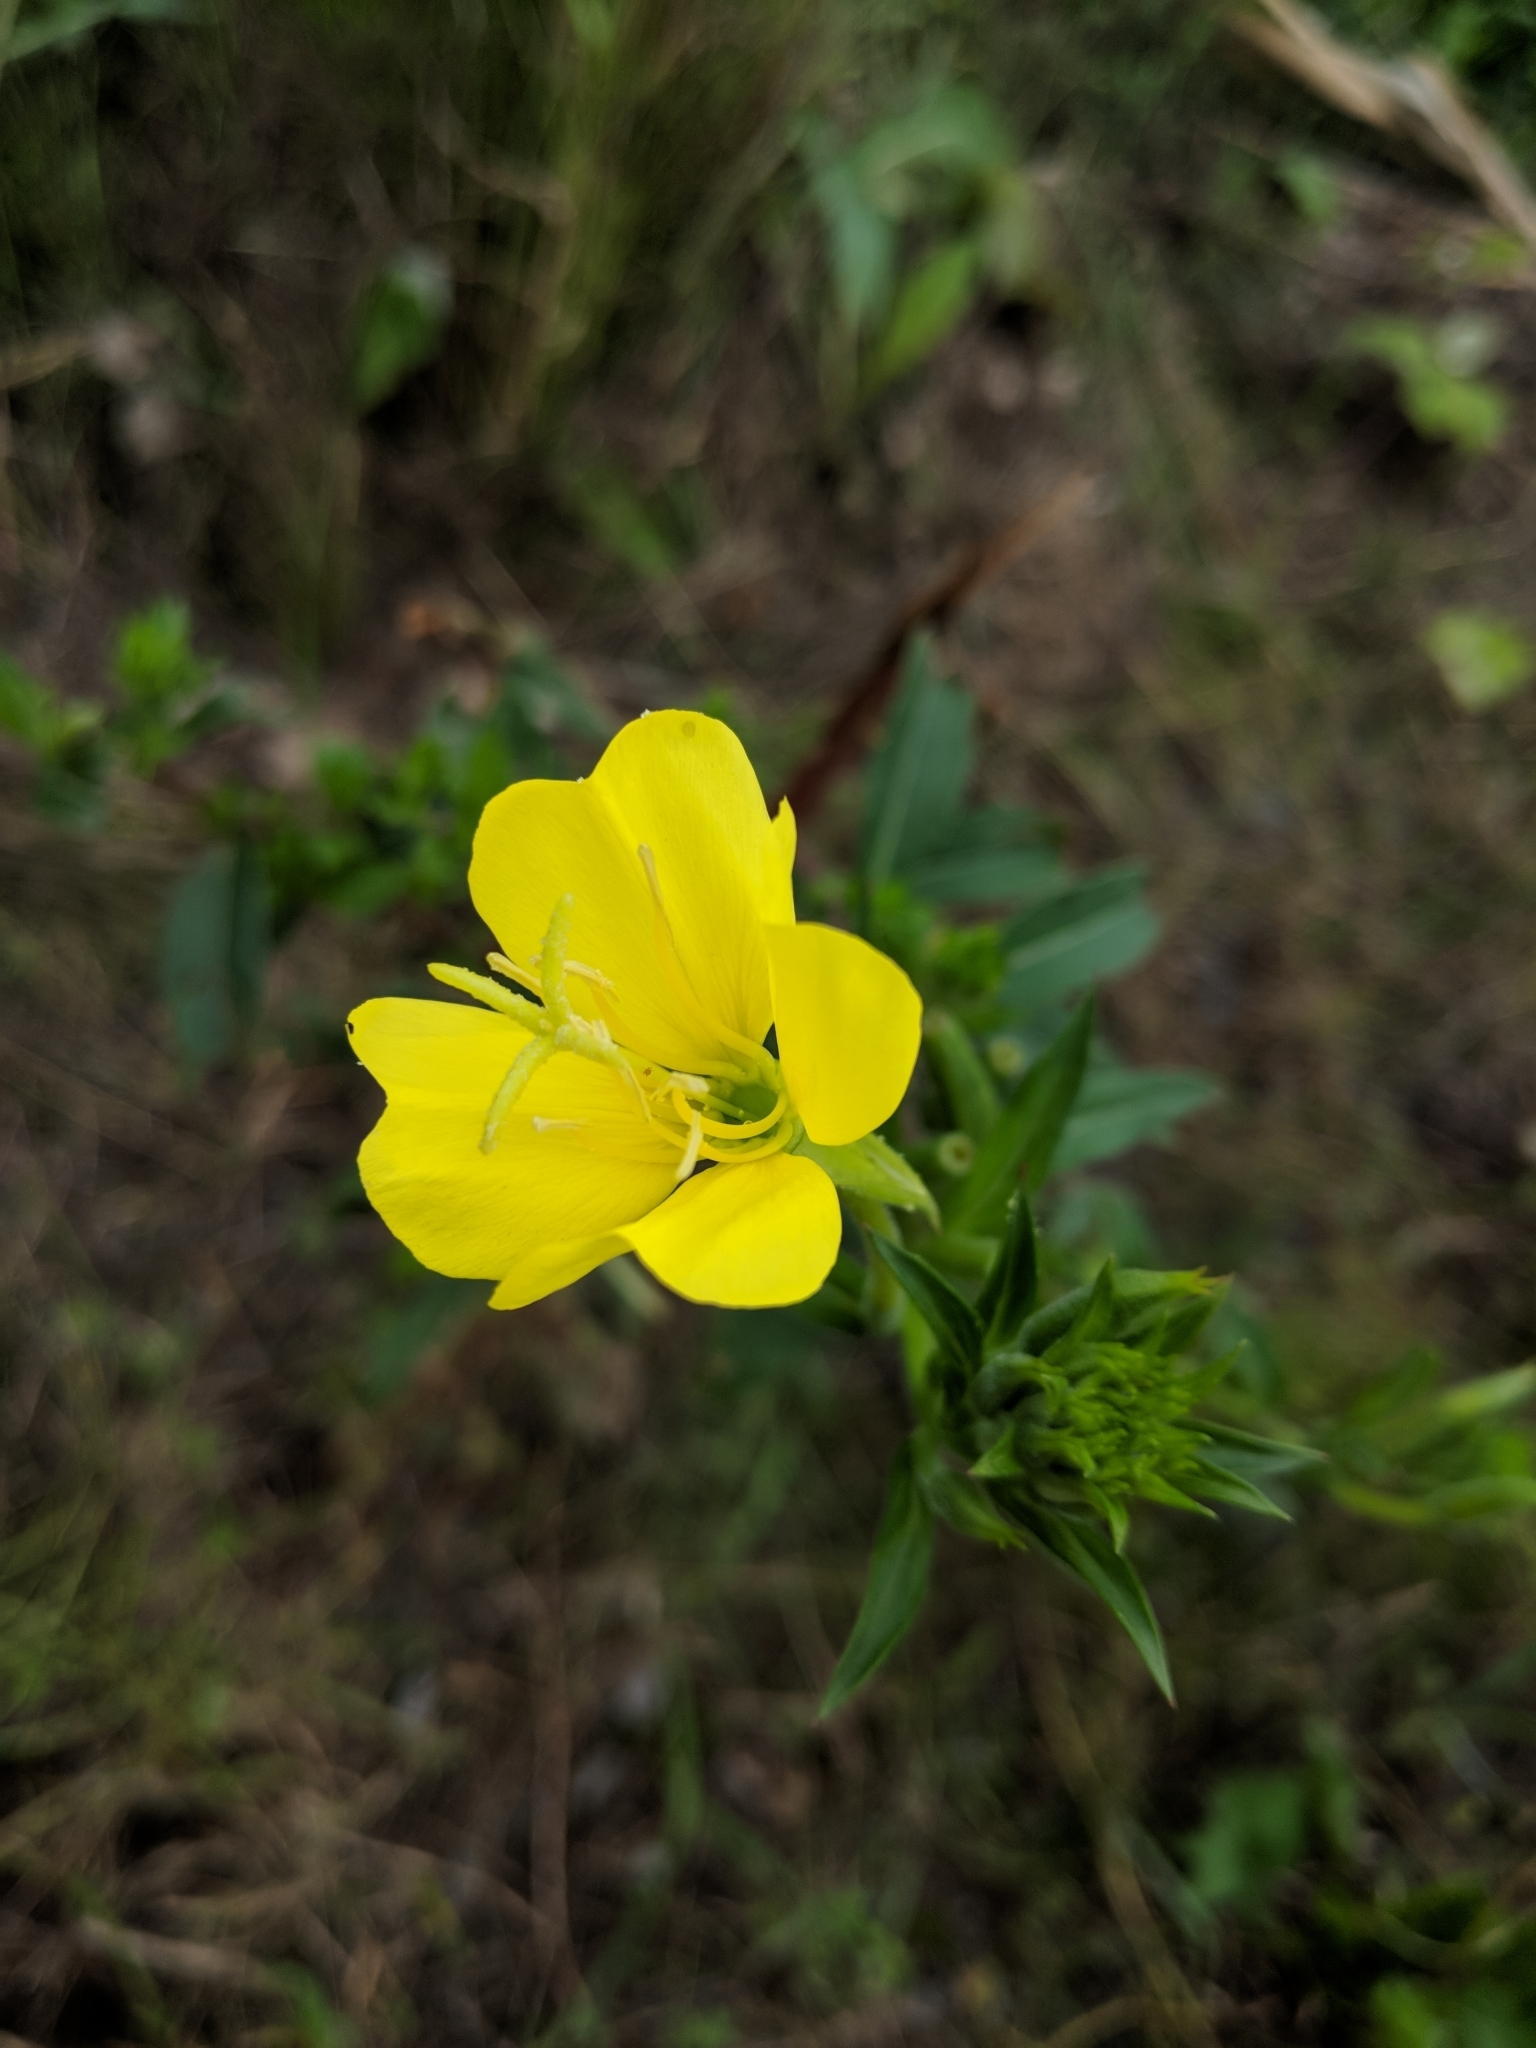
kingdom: Plantae
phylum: Tracheophyta
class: Magnoliopsida
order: Myrtales
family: Onagraceae
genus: Oenothera
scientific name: Oenothera biennis
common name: Common evening-primrose
